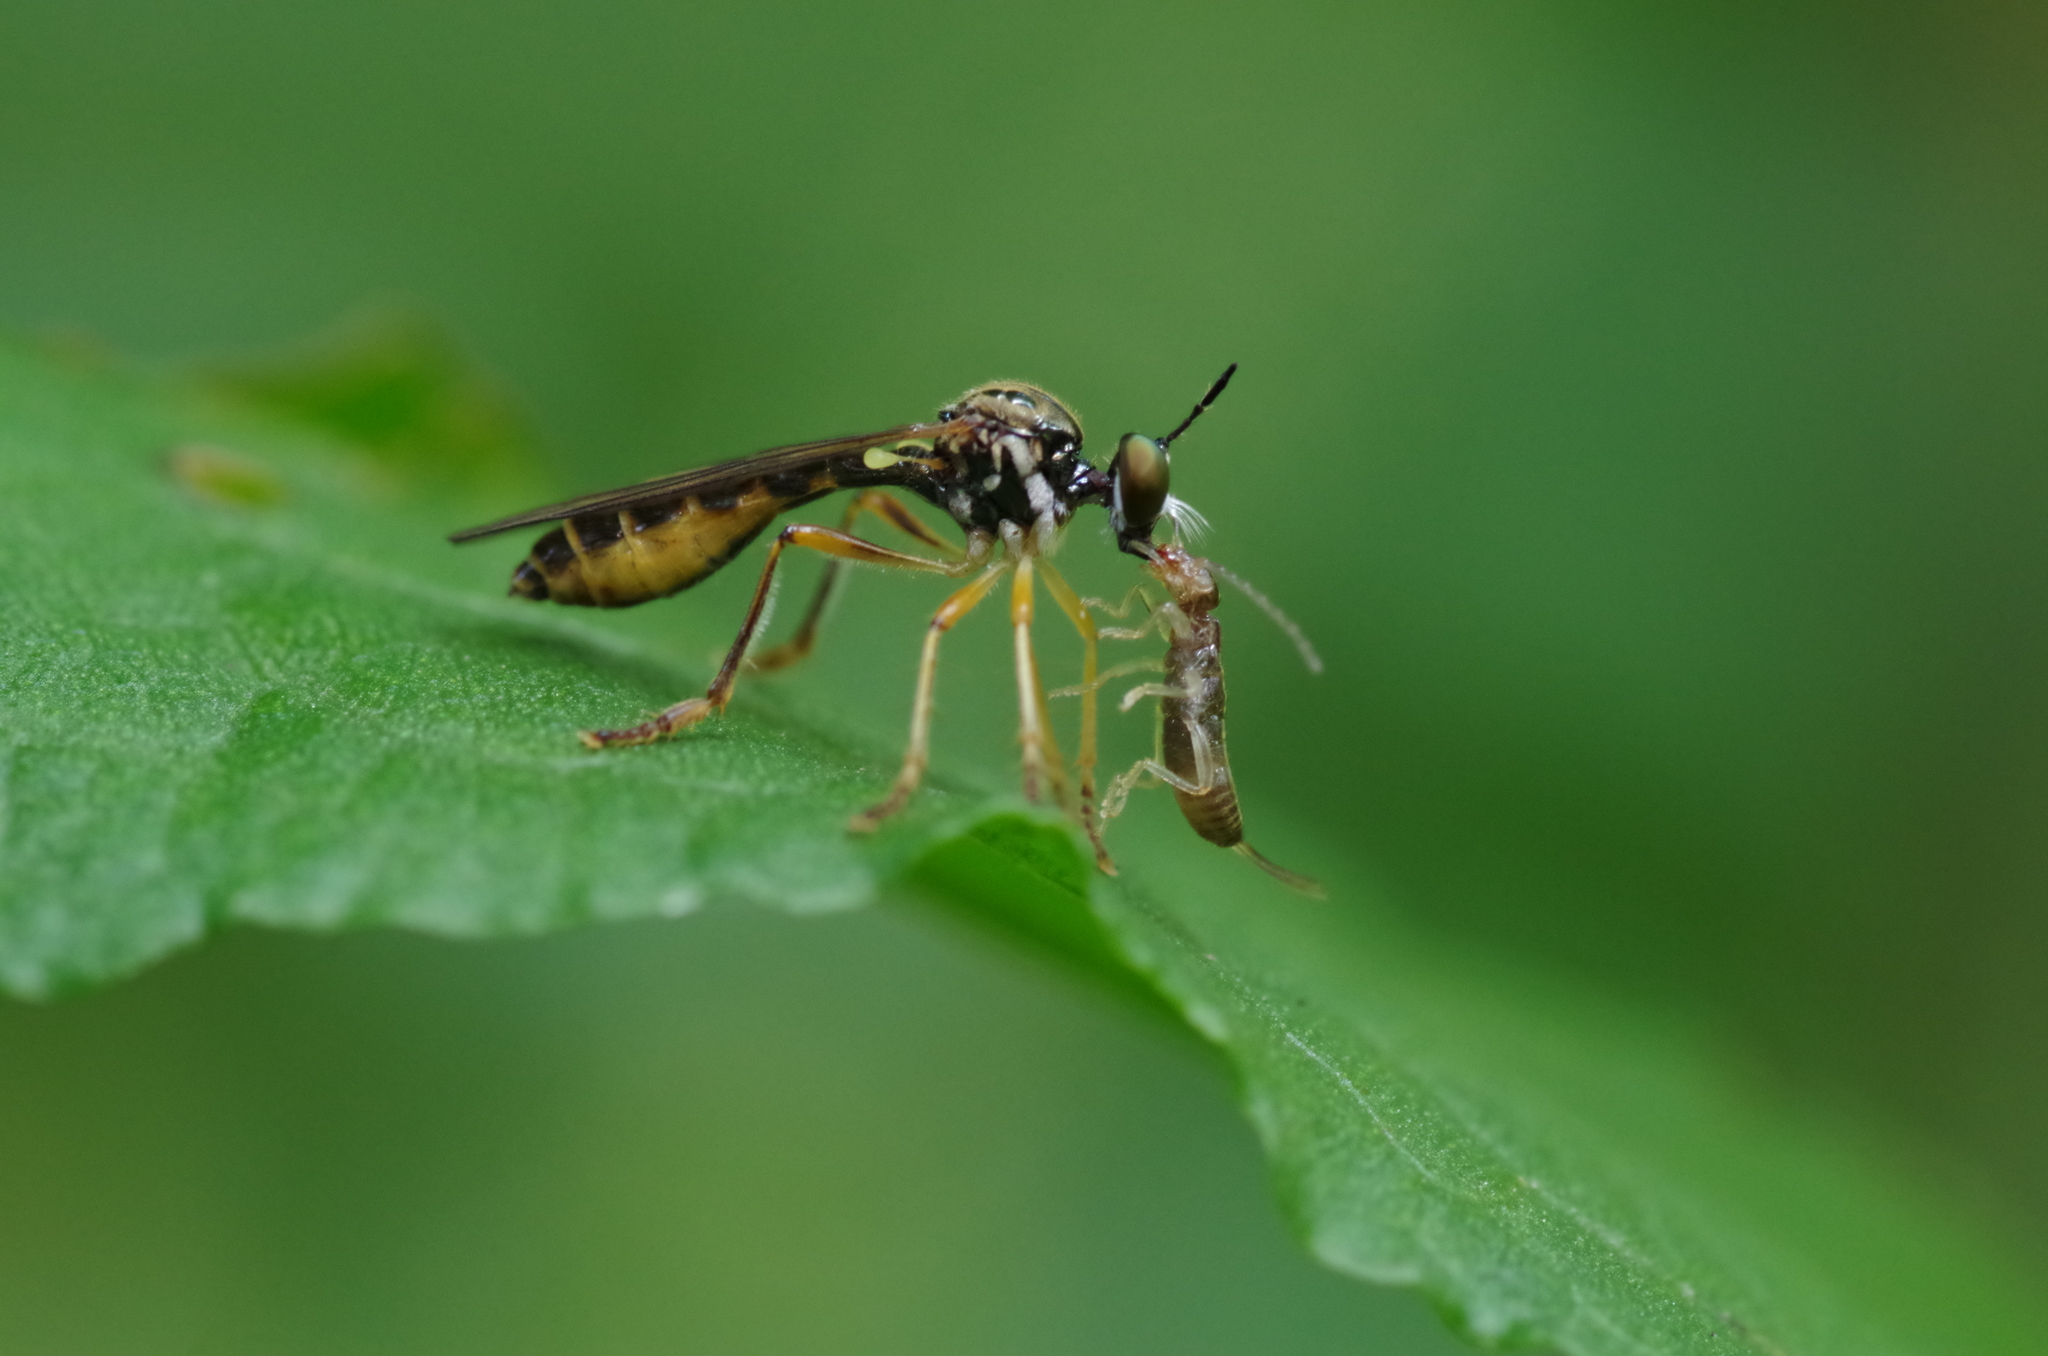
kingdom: Animalia
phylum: Arthropoda
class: Insecta
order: Diptera
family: Asilidae
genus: Dioctria
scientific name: Dioctria linearis
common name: Small yellow-legged robberfly
